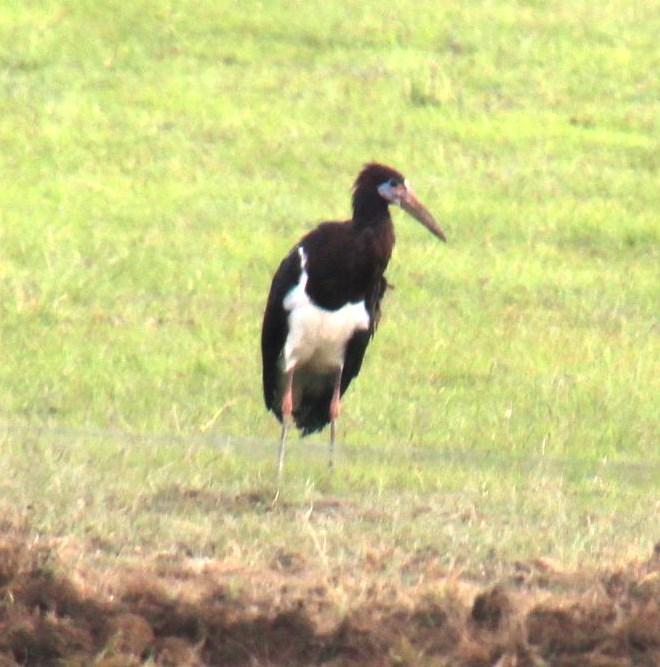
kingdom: Animalia
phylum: Chordata
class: Aves
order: Ciconiiformes
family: Ciconiidae
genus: Ciconia
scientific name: Ciconia abdimii
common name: Abdim's stork
